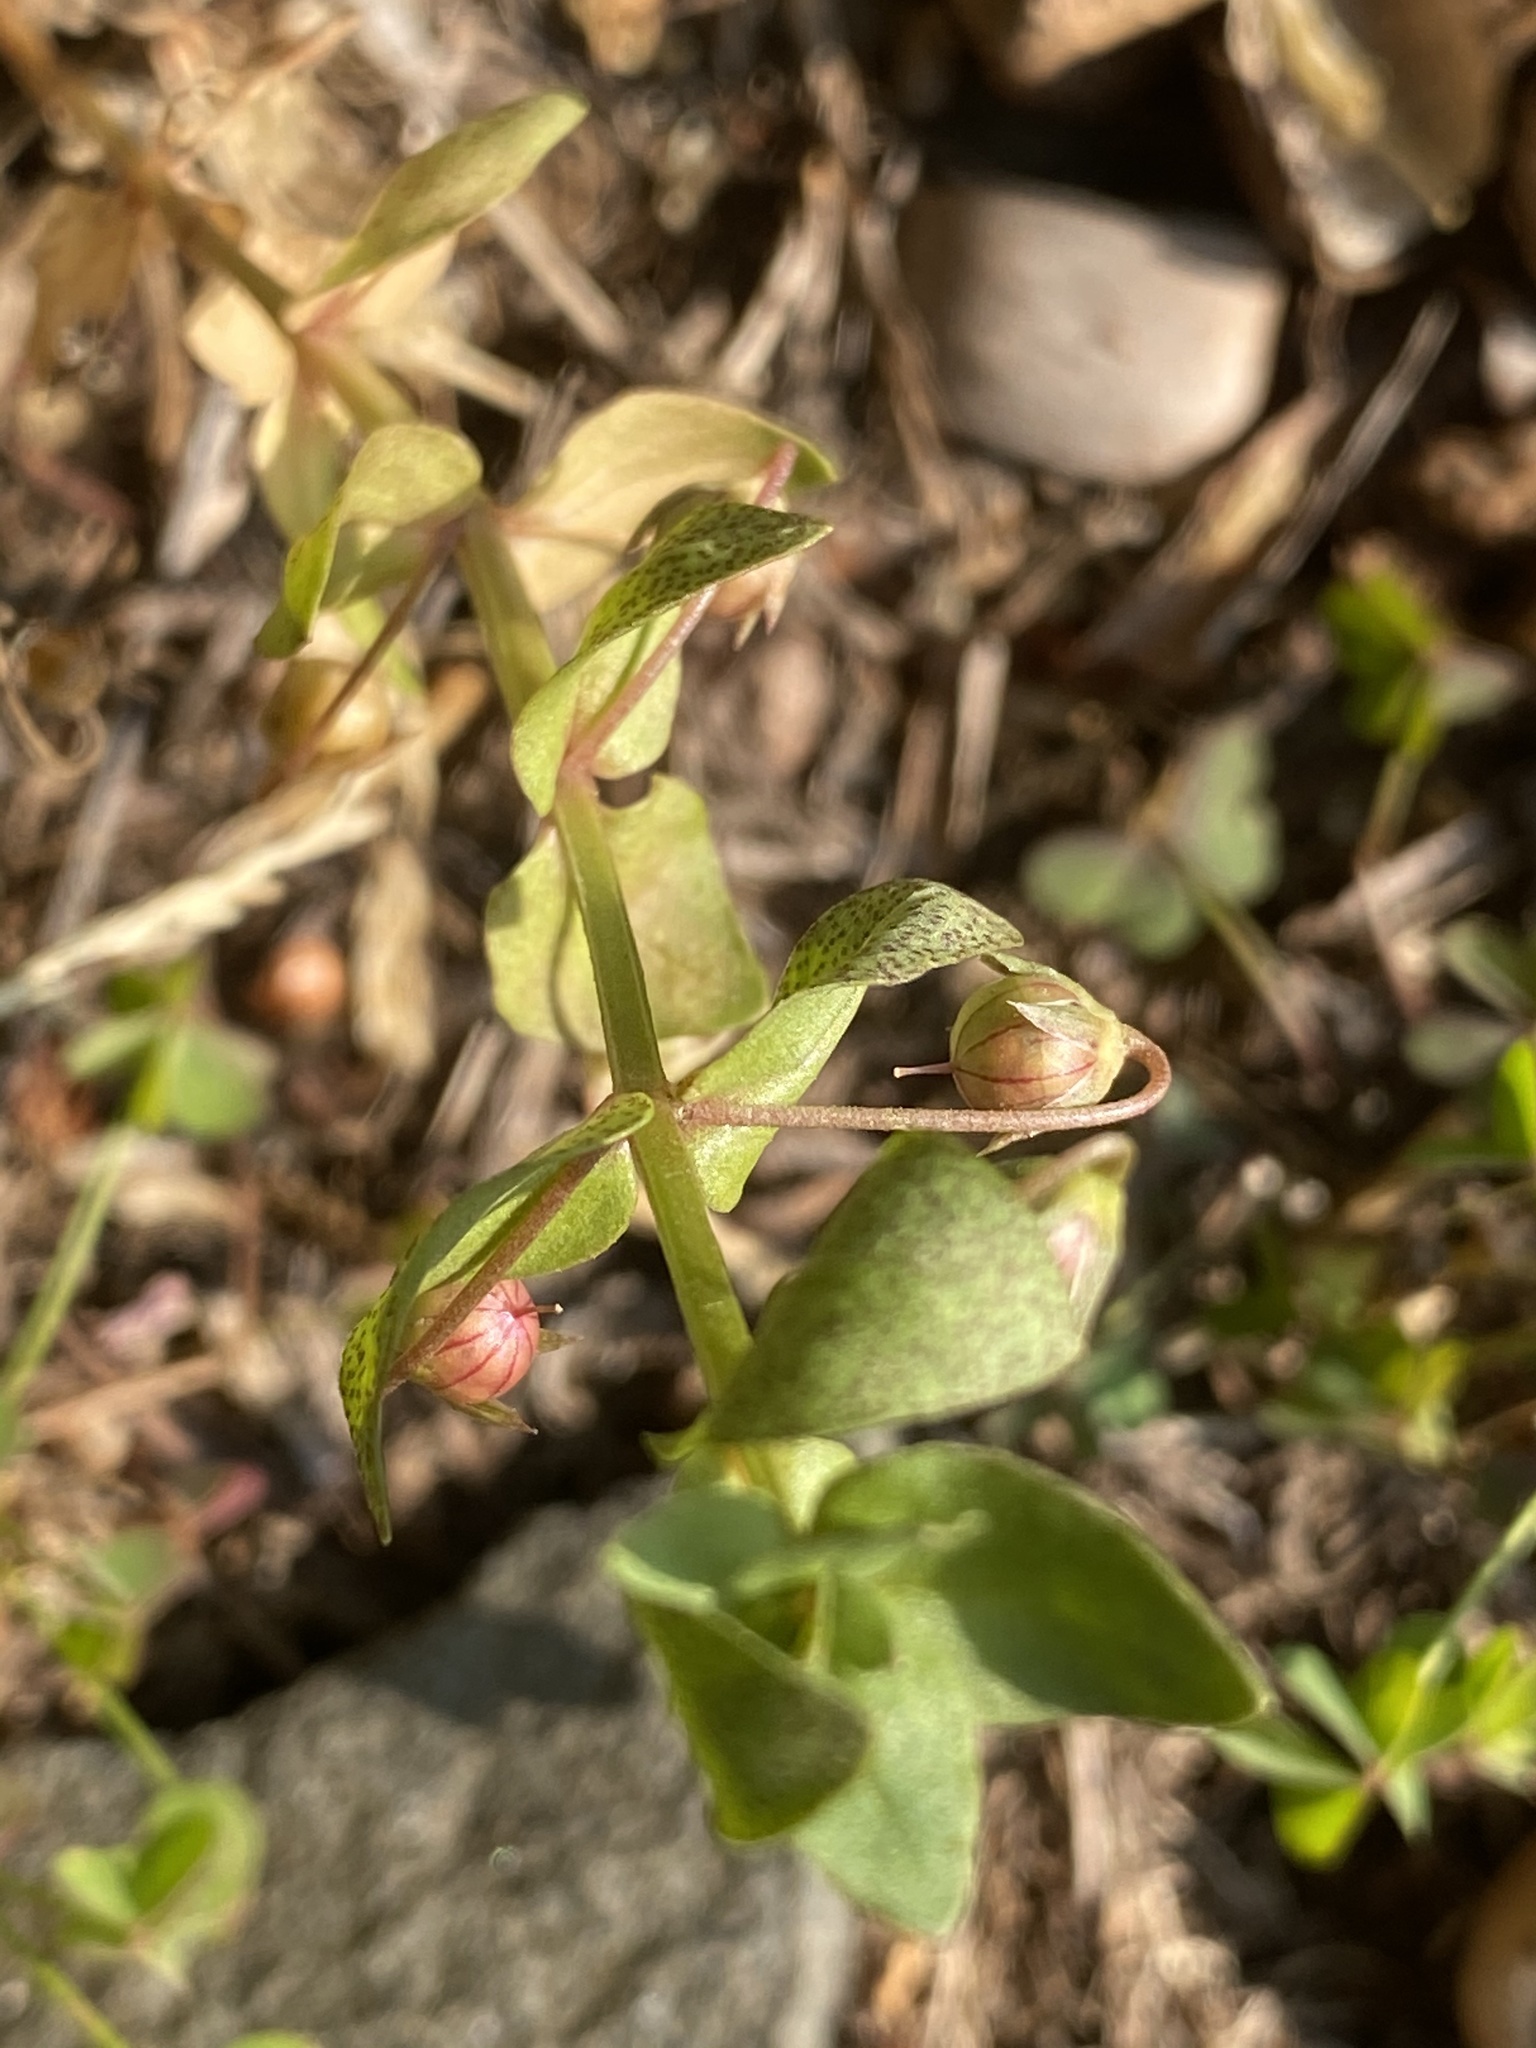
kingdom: Plantae
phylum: Tracheophyta
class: Magnoliopsida
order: Ericales
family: Primulaceae
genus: Lysimachia
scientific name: Lysimachia arvensis
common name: Scarlet pimpernel
